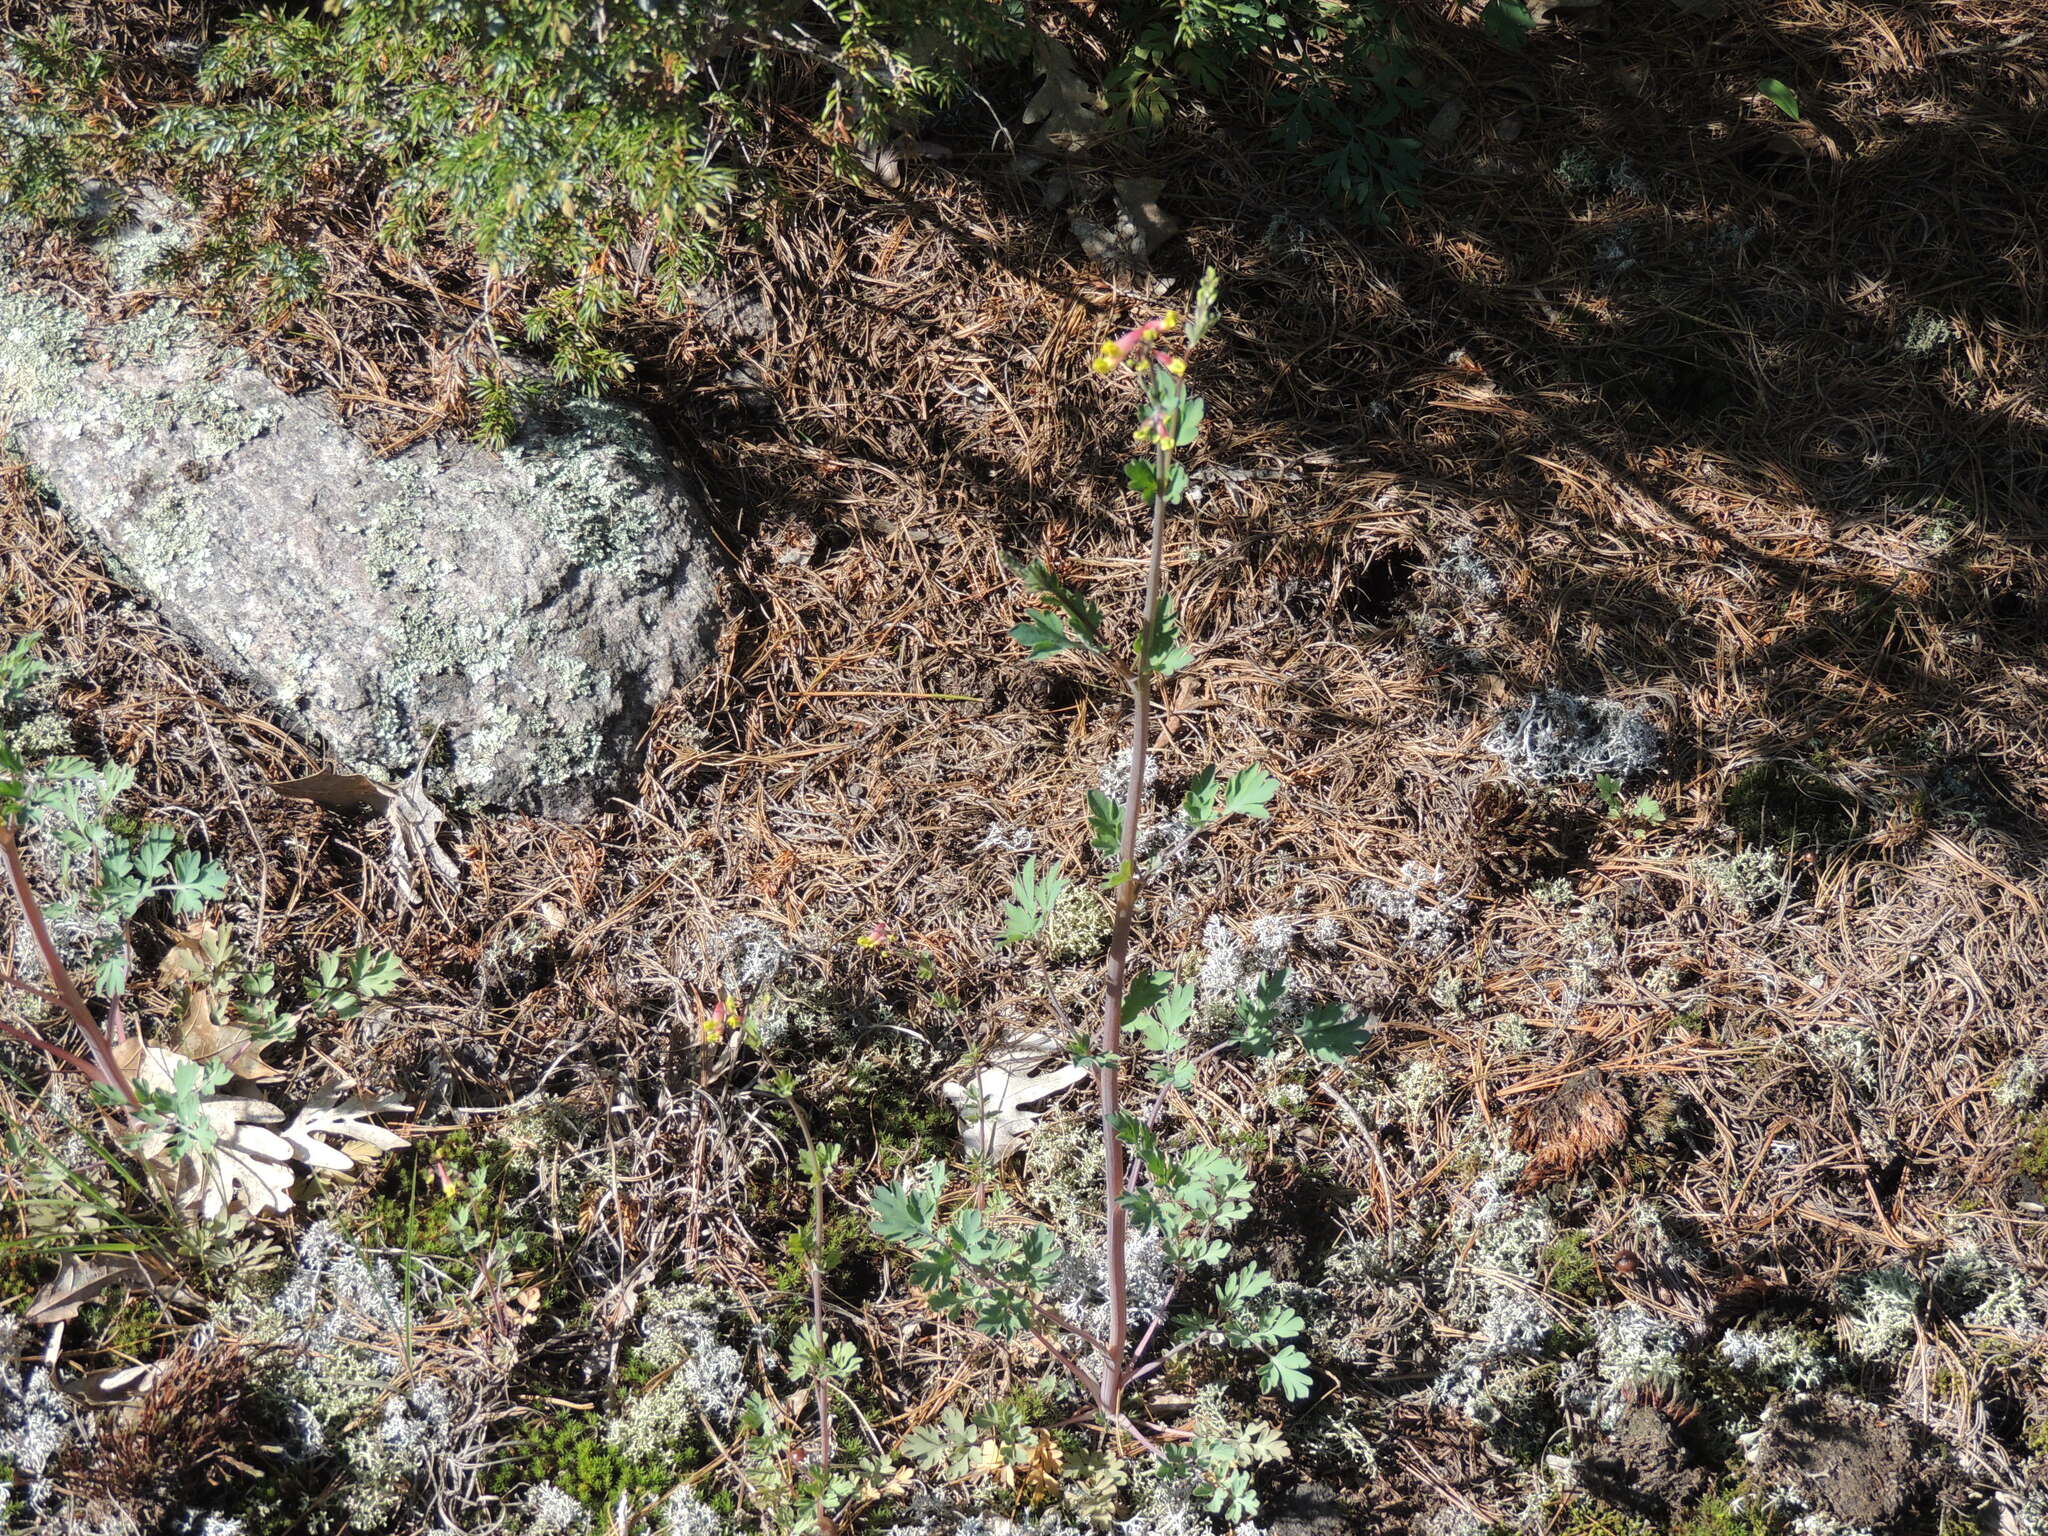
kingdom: Plantae
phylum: Tracheophyta
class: Magnoliopsida
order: Ranunculales
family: Papaveraceae
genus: Capnoides
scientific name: Capnoides sempervirens
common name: Rock harlequin
